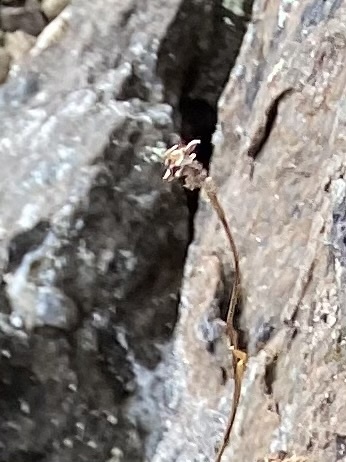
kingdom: Plantae
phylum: Tracheophyta
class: Liliopsida
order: Poales
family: Juncaceae
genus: Luzula
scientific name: Luzula nivalis
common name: Arctic woodrush
